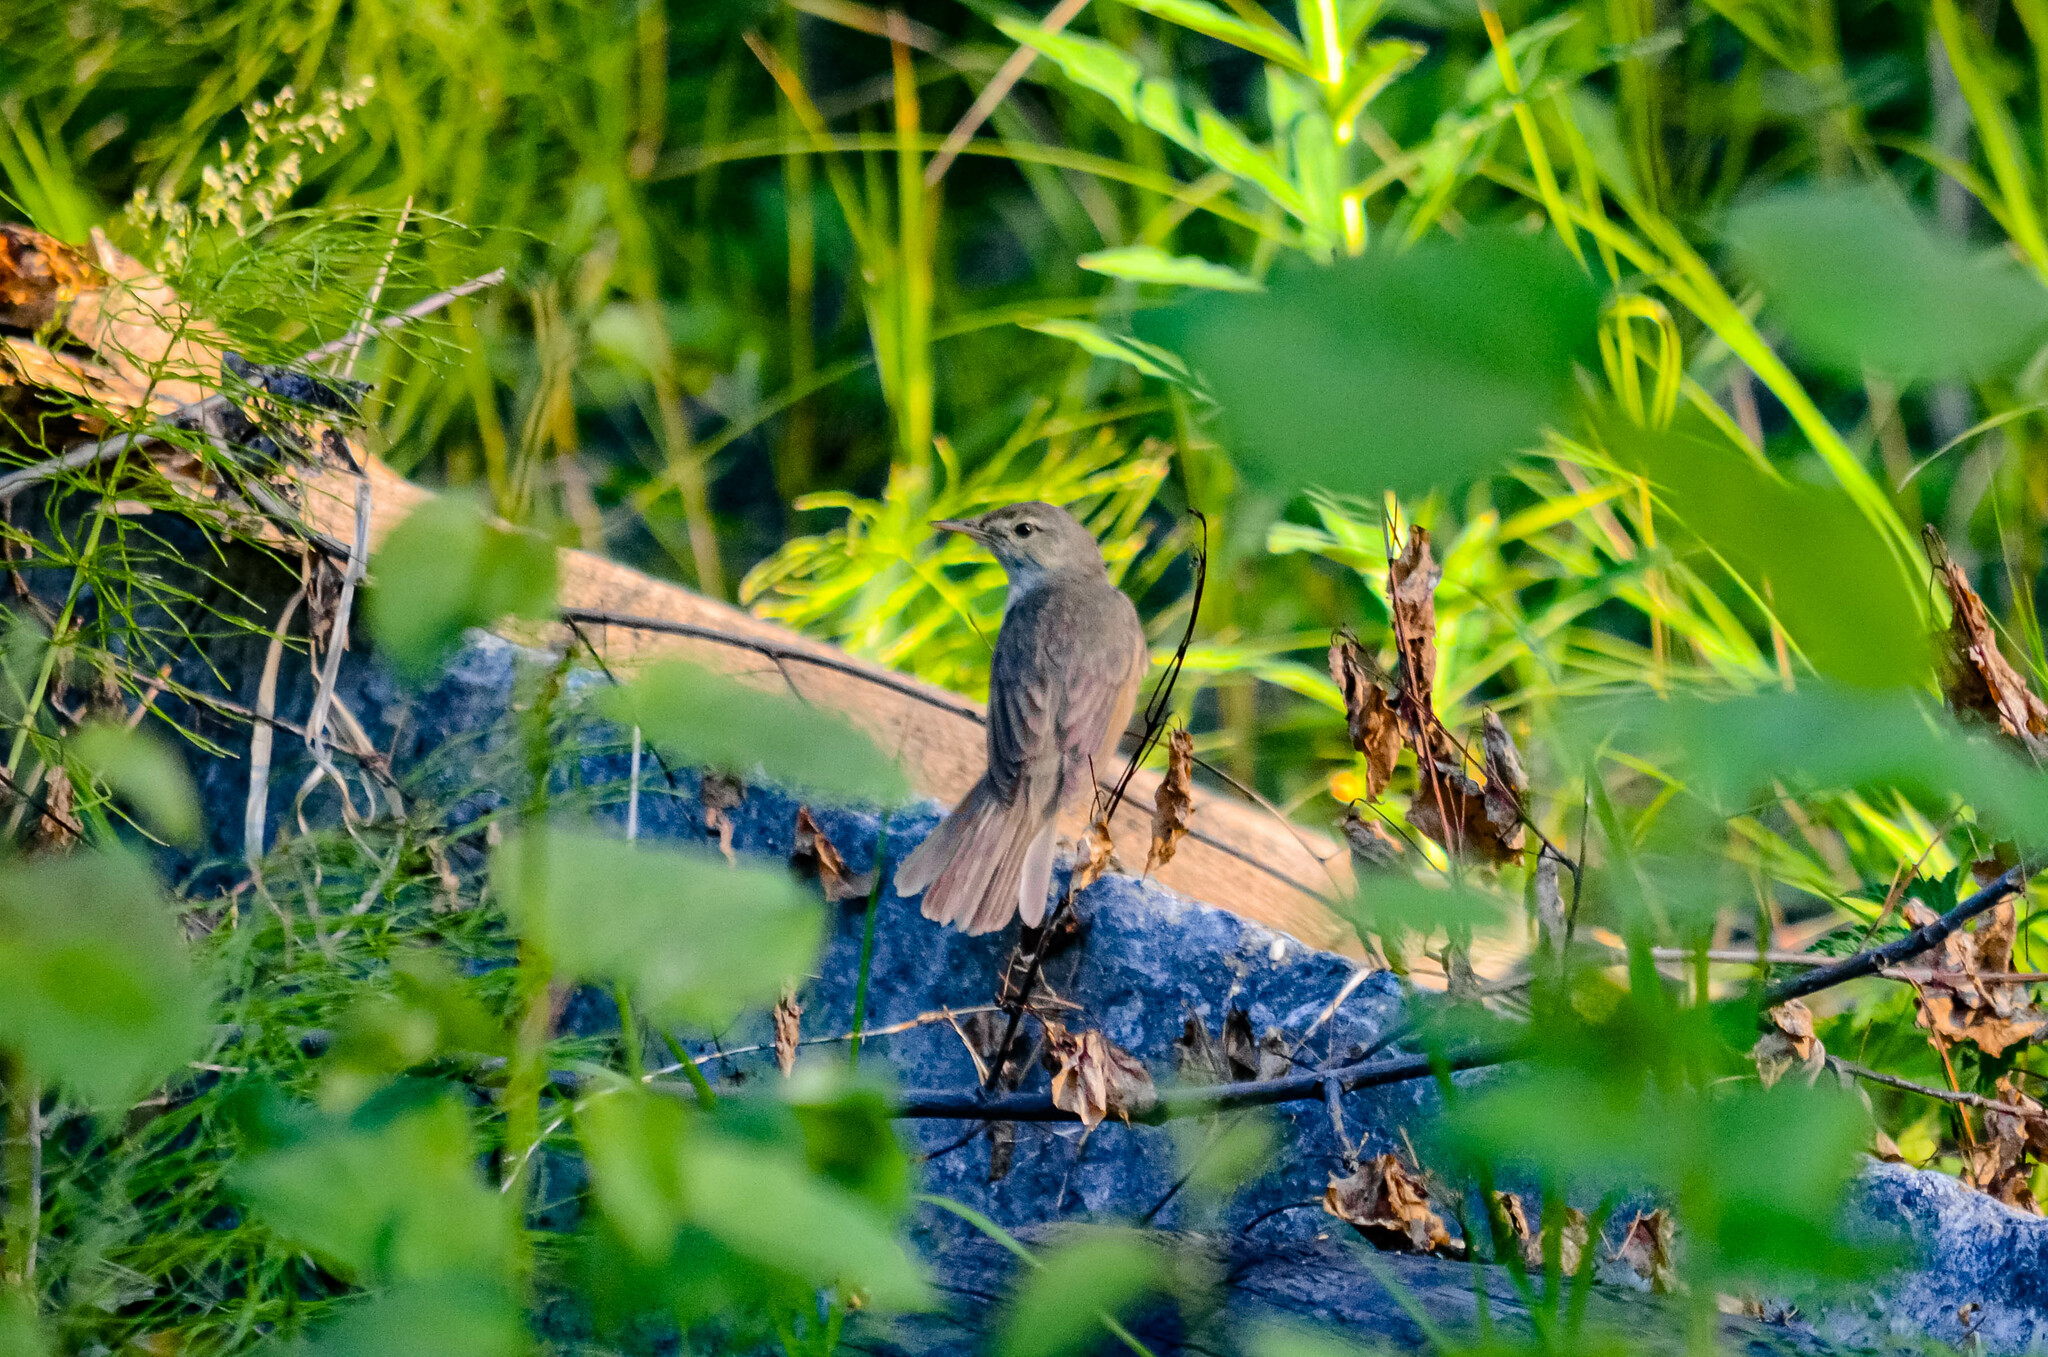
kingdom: Animalia
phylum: Chordata
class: Aves
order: Passeriformes
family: Acrocephalidae
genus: Acrocephalus
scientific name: Acrocephalus dumetorum
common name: Blyth's reed warbler
